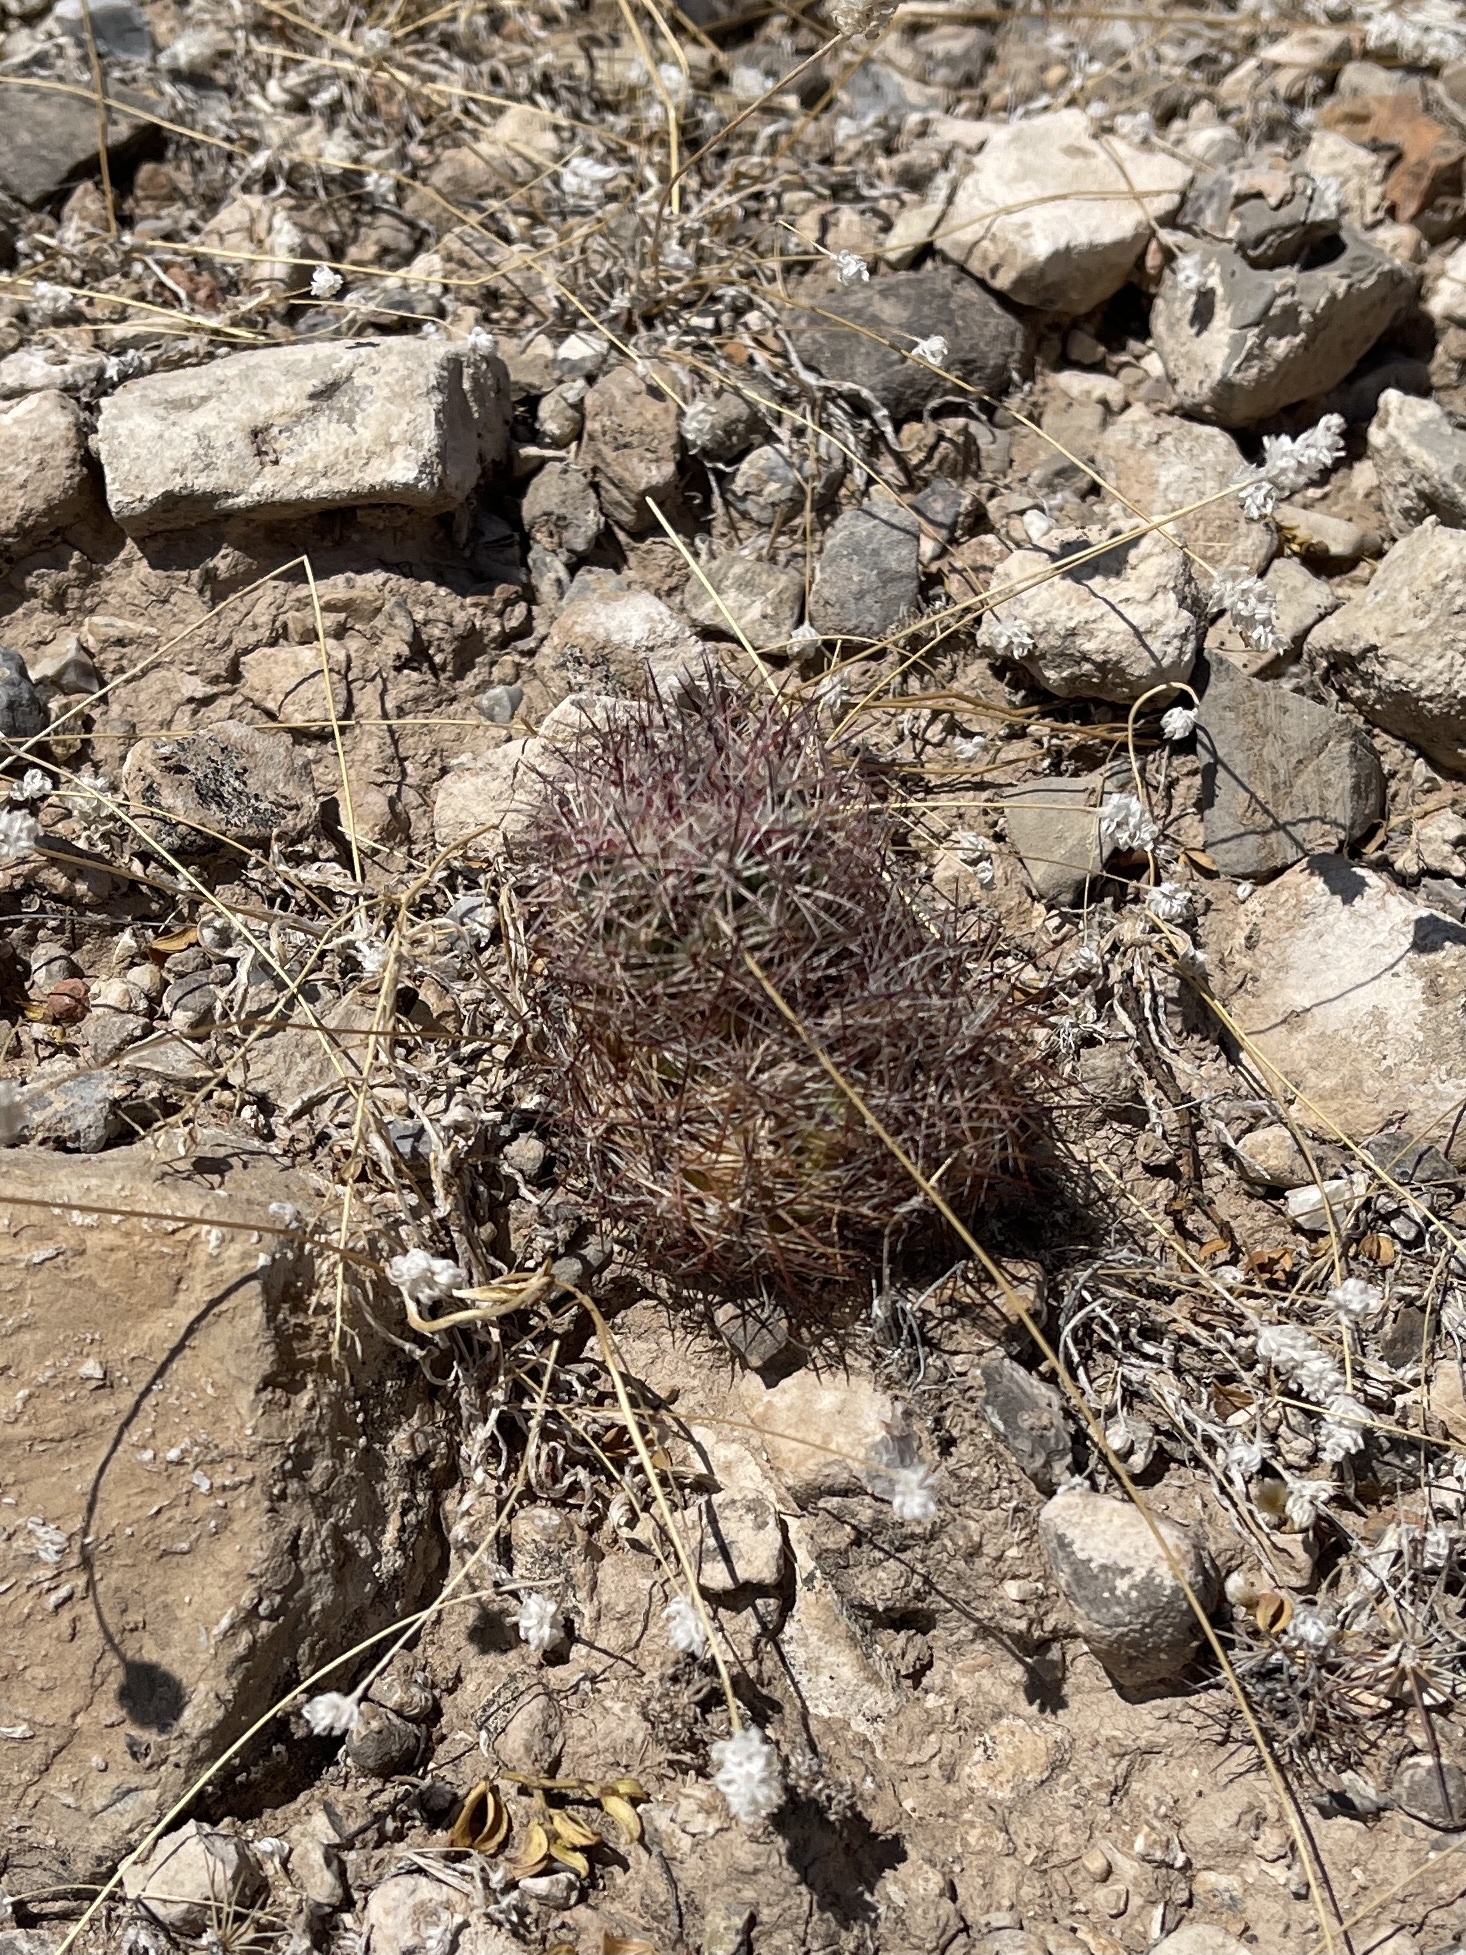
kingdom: Plantae
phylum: Tracheophyta
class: Magnoliopsida
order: Caryophyllales
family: Cactaceae
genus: Sclerocactus
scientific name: Sclerocactus intertextus
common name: White fish-hook cactus
